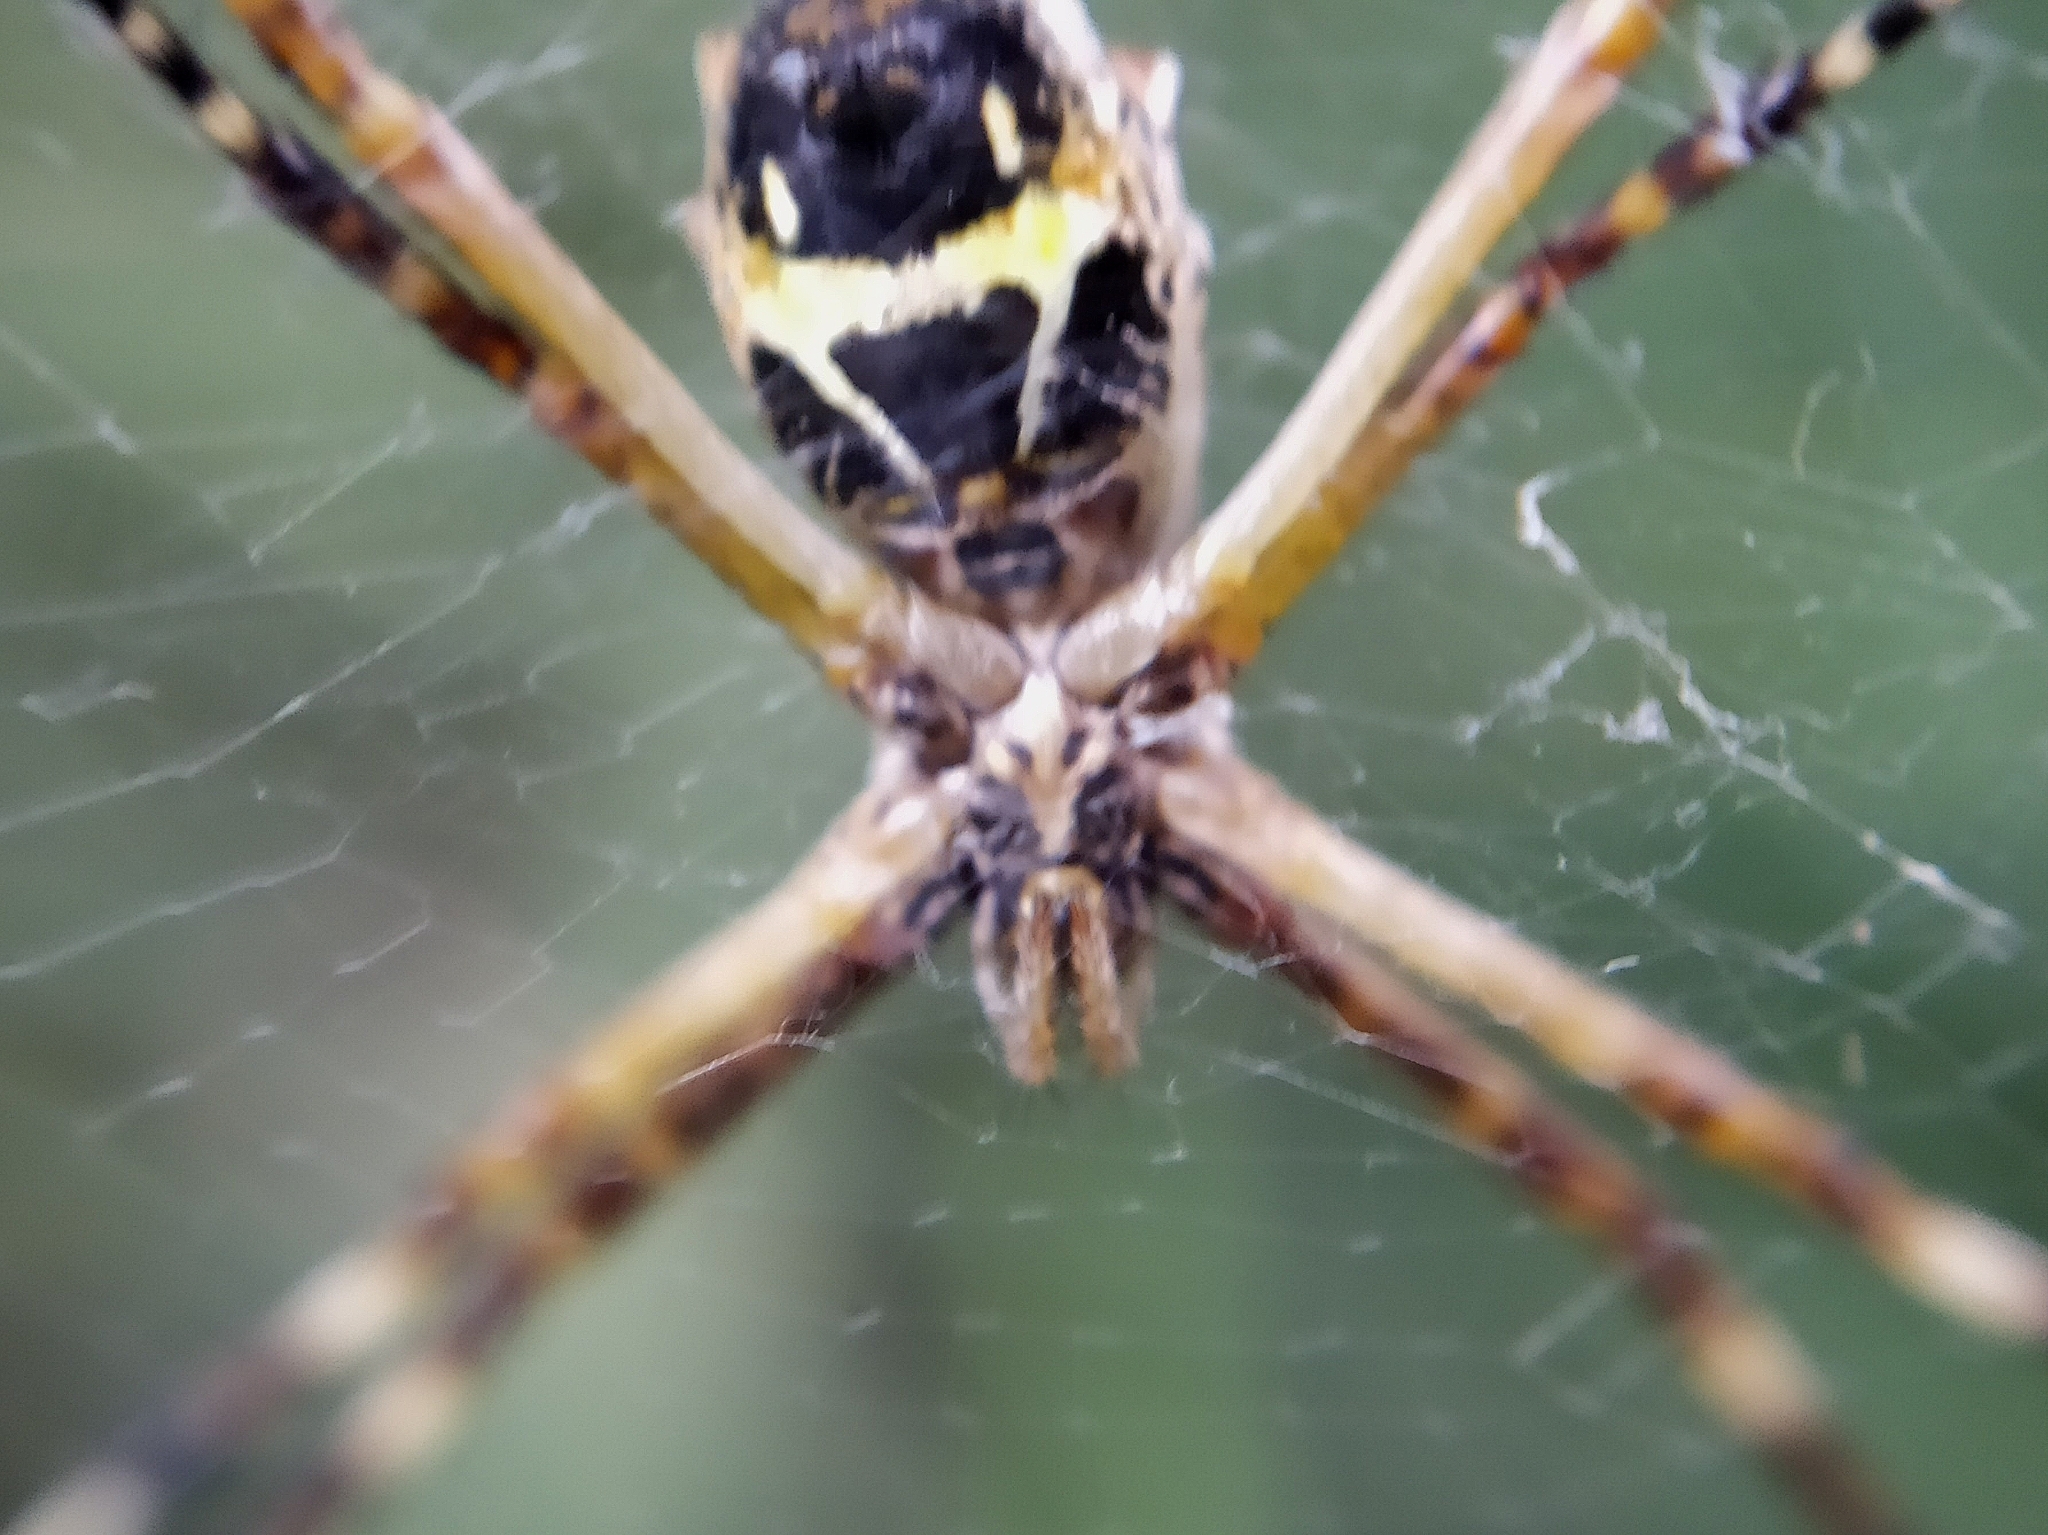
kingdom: Animalia
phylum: Arthropoda
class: Arachnida
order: Araneae
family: Araneidae
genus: Argiope
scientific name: Argiope argentata
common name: Orb weavers
